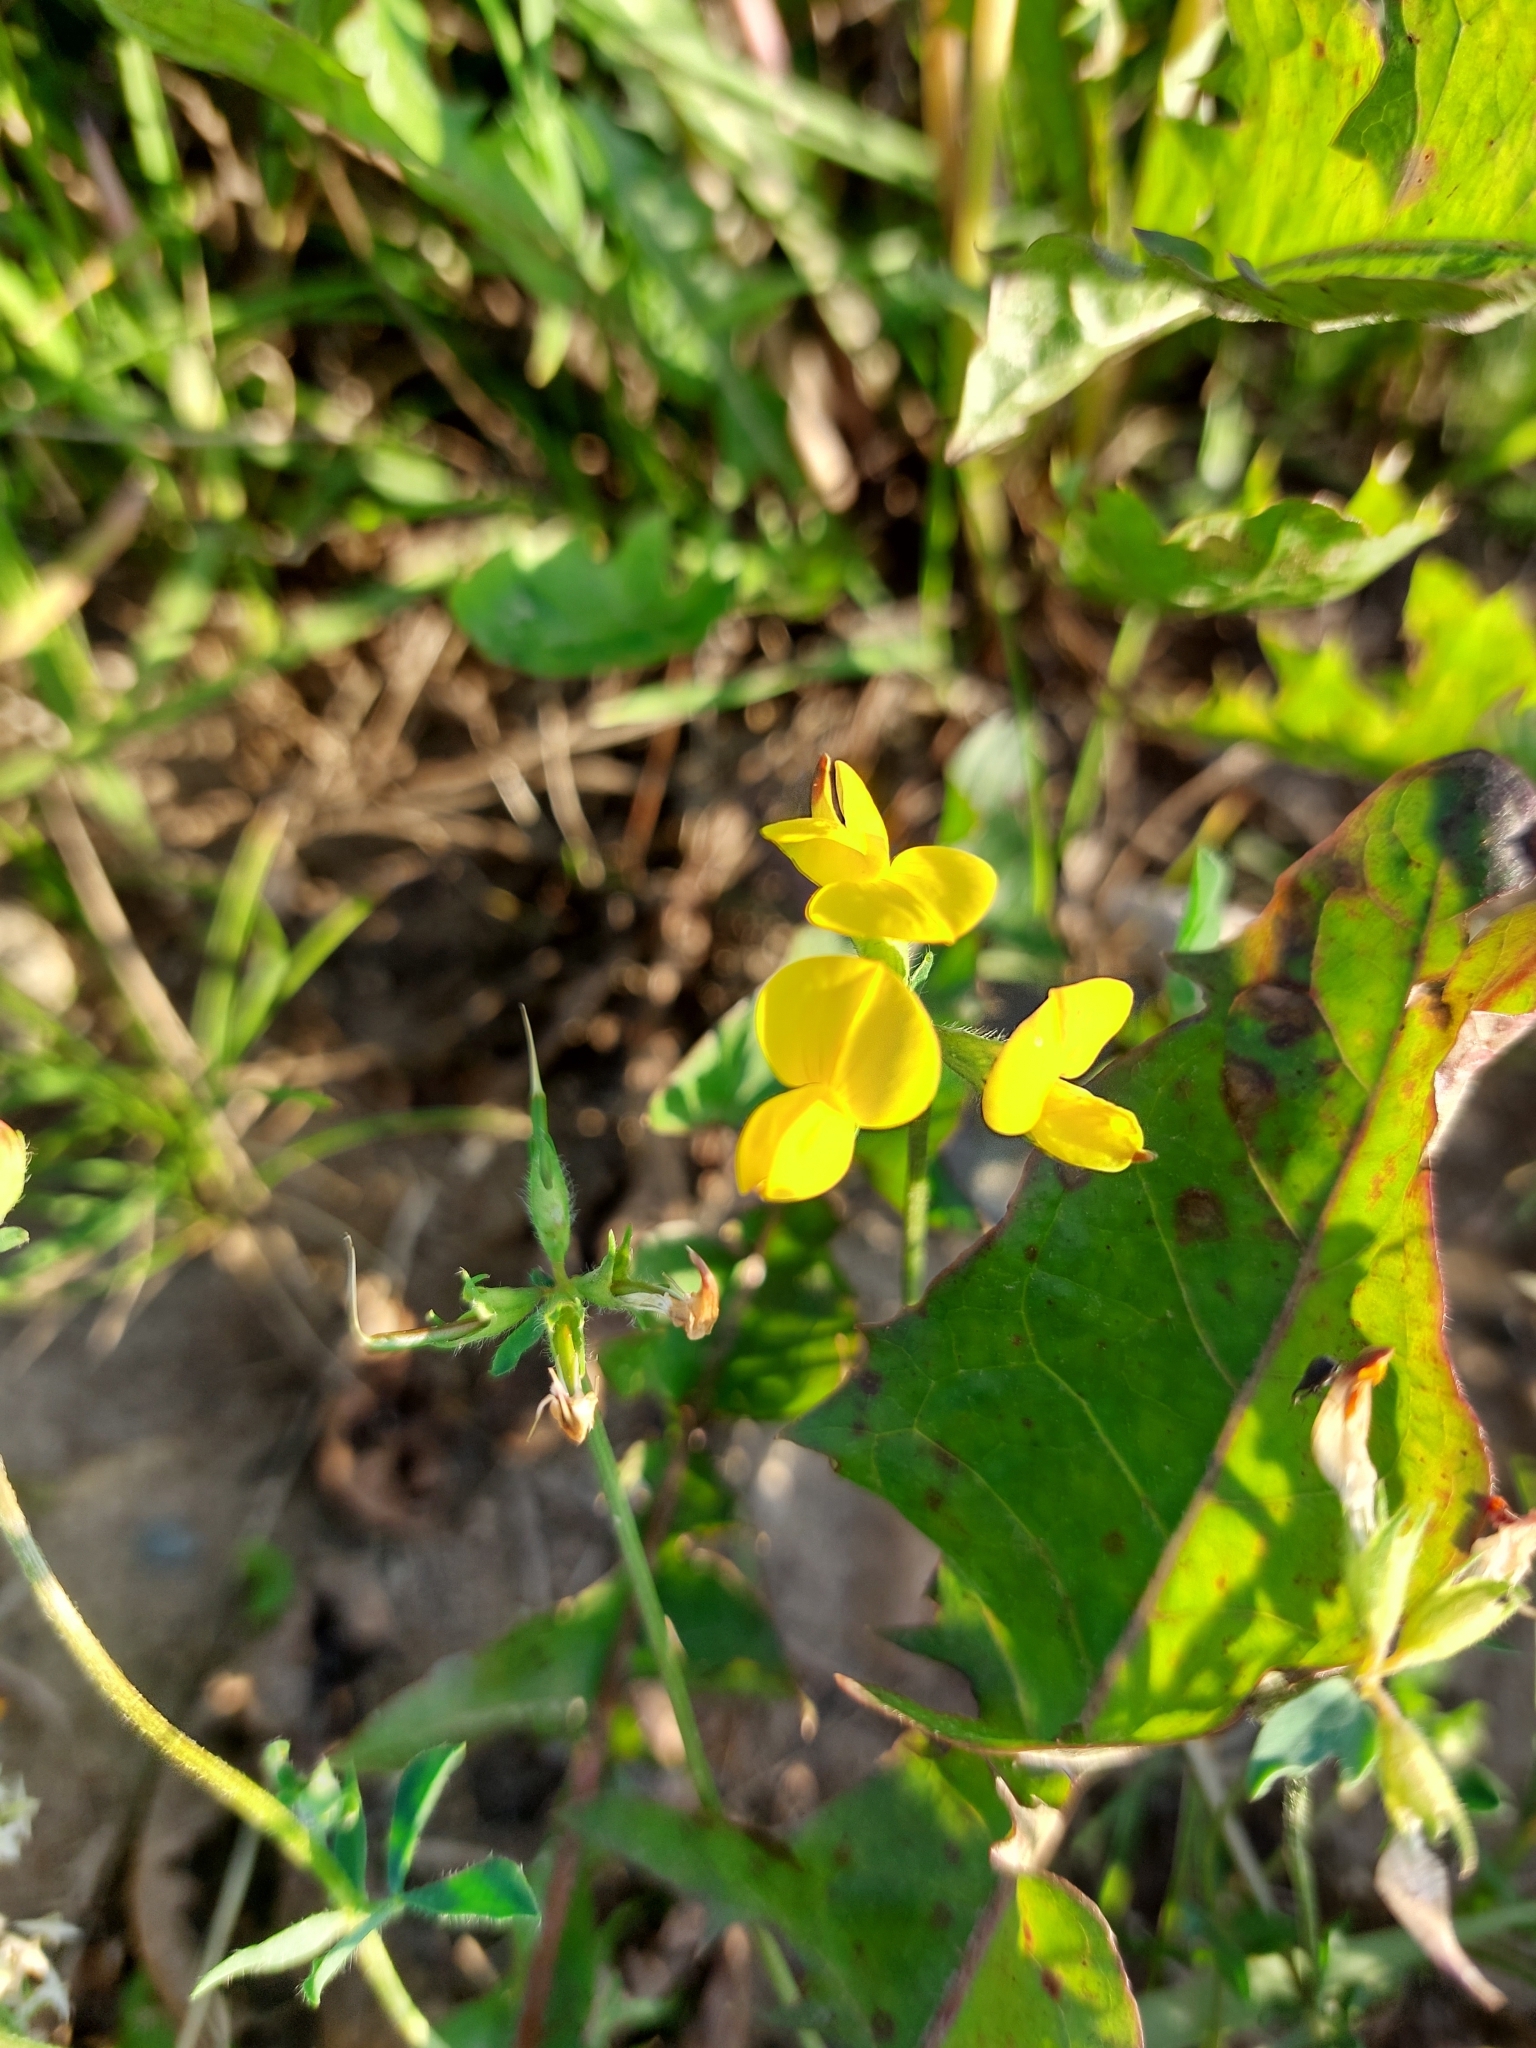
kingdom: Plantae
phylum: Tracheophyta
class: Magnoliopsida
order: Fabales
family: Fabaceae
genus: Lotus
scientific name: Lotus corniculatus
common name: Common bird's-foot-trefoil
